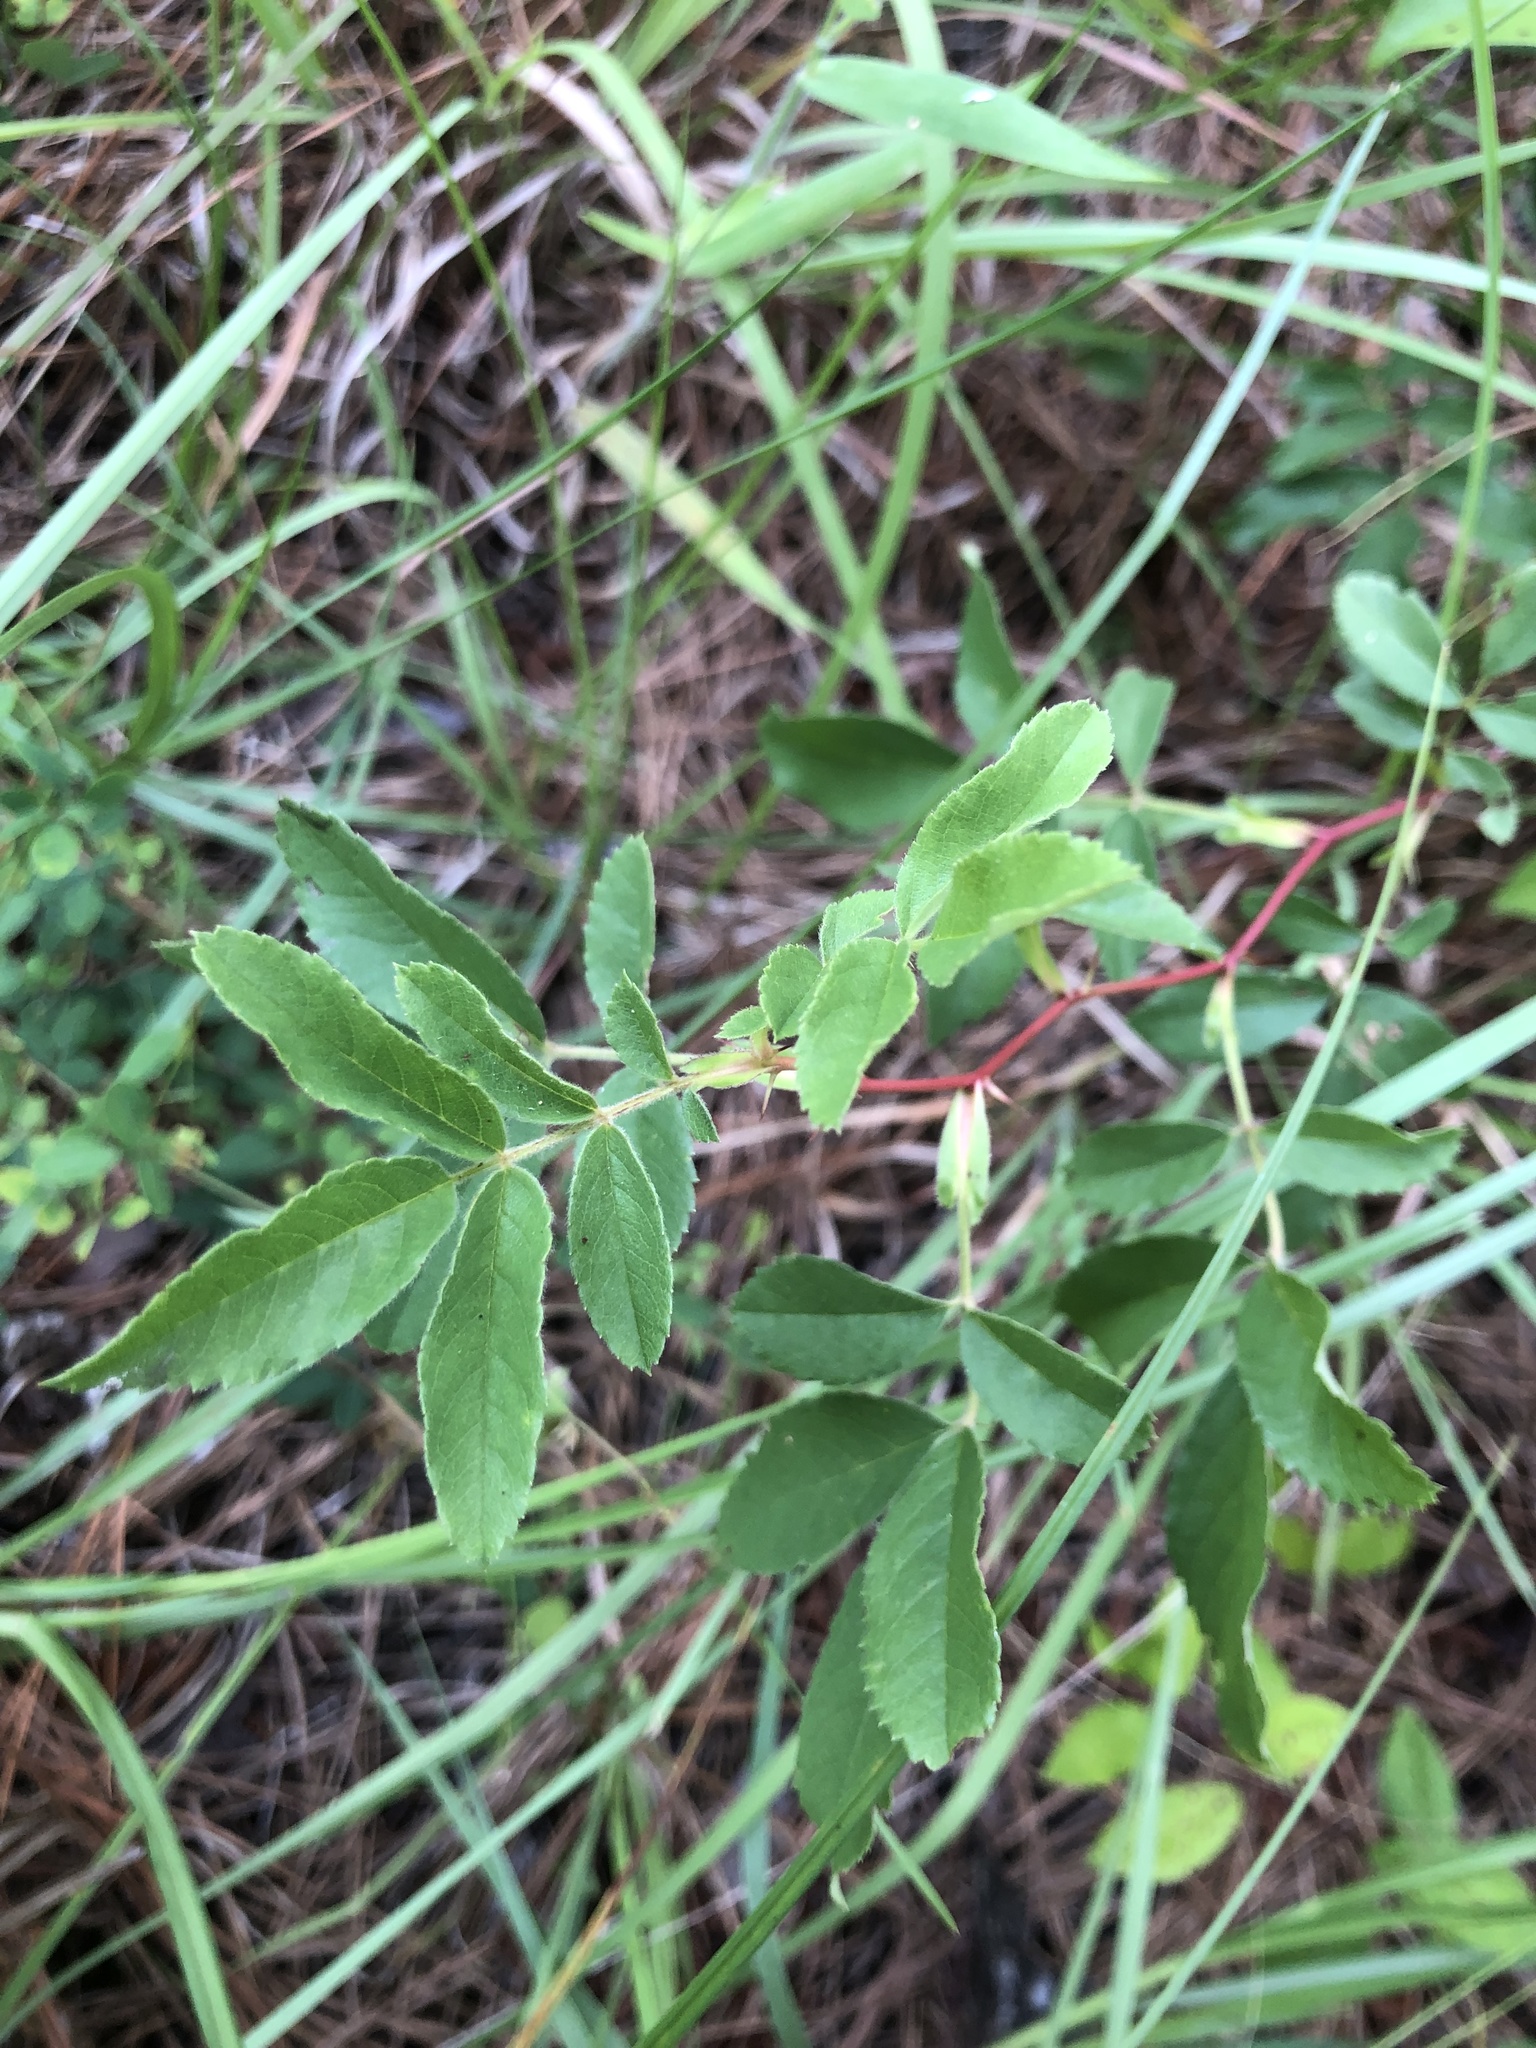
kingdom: Plantae
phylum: Tracheophyta
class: Magnoliopsida
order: Rosales
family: Rosaceae
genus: Rosa
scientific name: Rosa carolina
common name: Pasture rose
